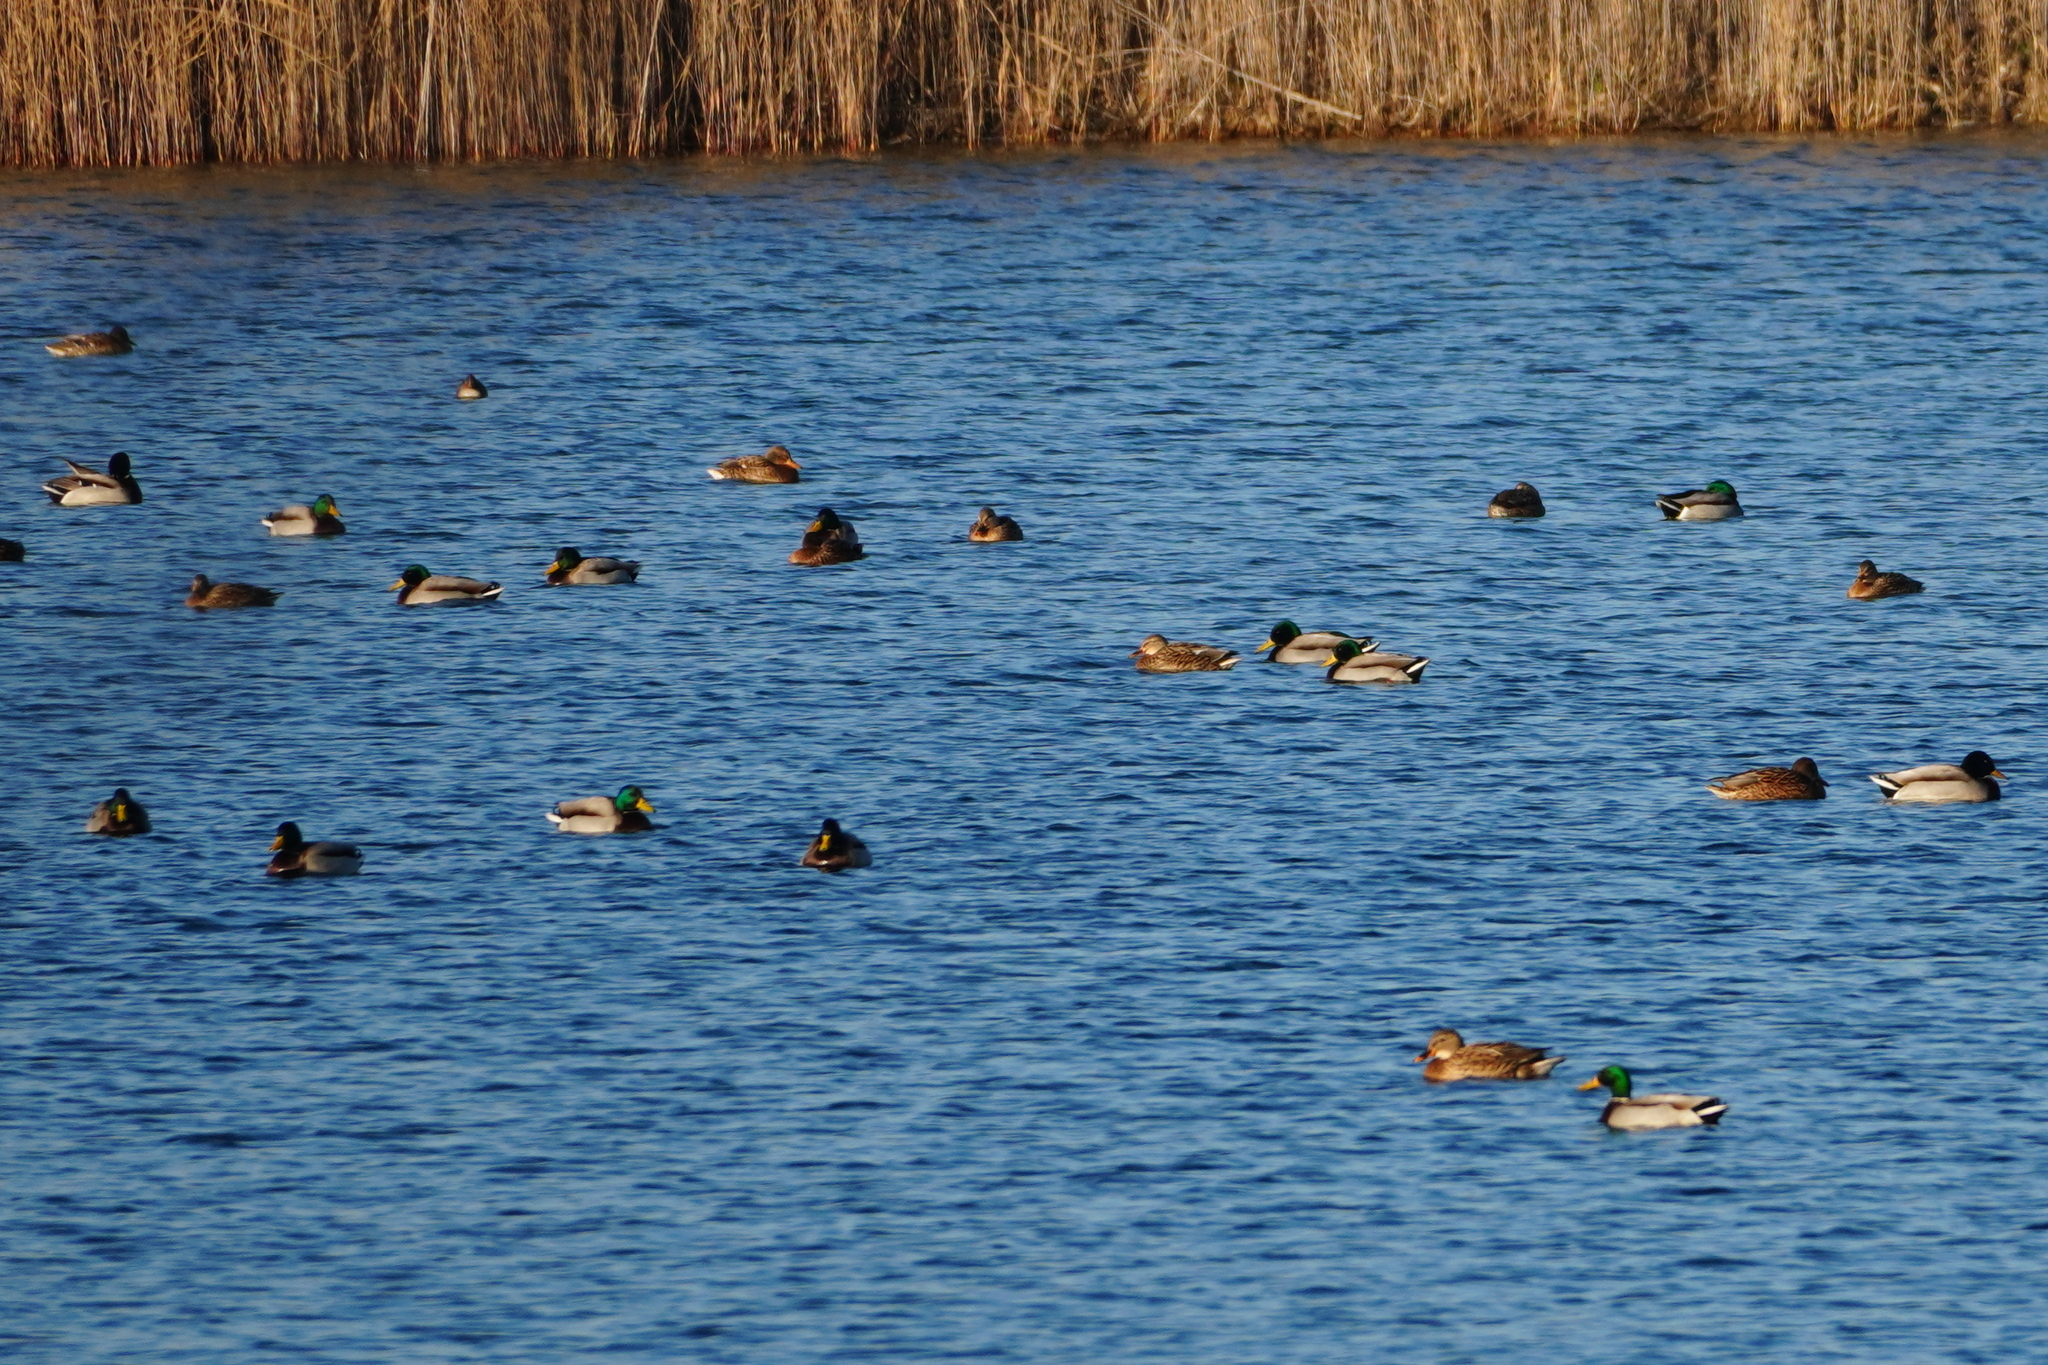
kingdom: Animalia
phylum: Chordata
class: Aves
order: Anseriformes
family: Anatidae
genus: Anas
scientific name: Anas platyrhynchos
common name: Mallard
